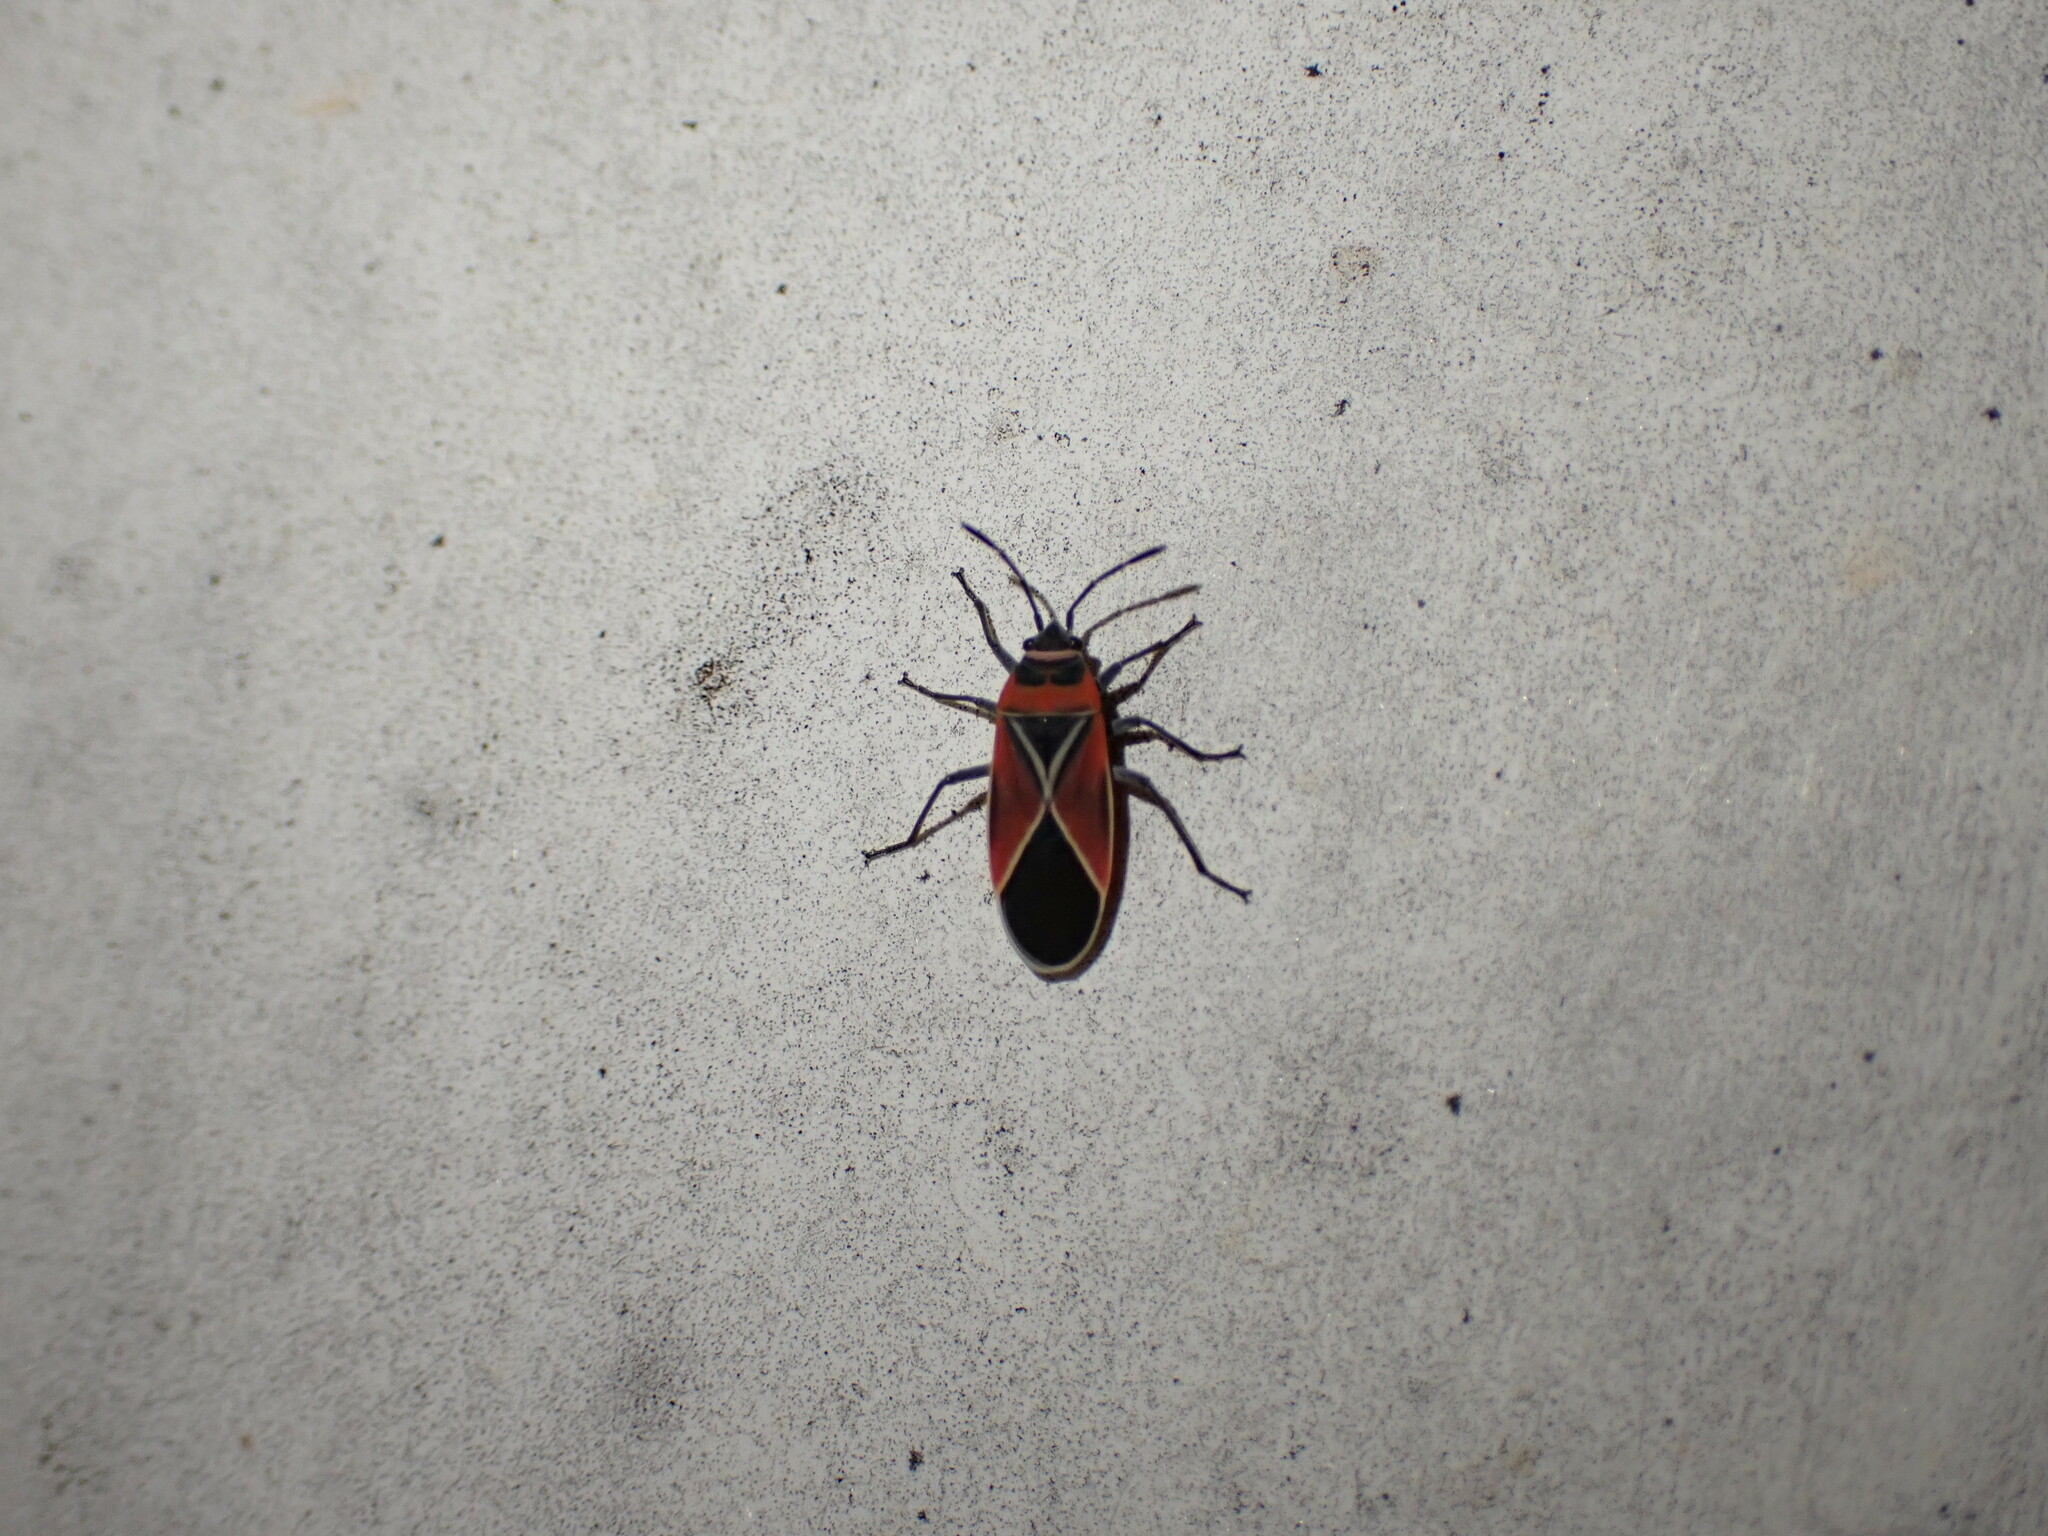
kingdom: Animalia
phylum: Arthropoda
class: Insecta
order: Hemiptera
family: Lygaeidae
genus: Neacoryphus
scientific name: Neacoryphus bicrucis
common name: Lygaeid bug
